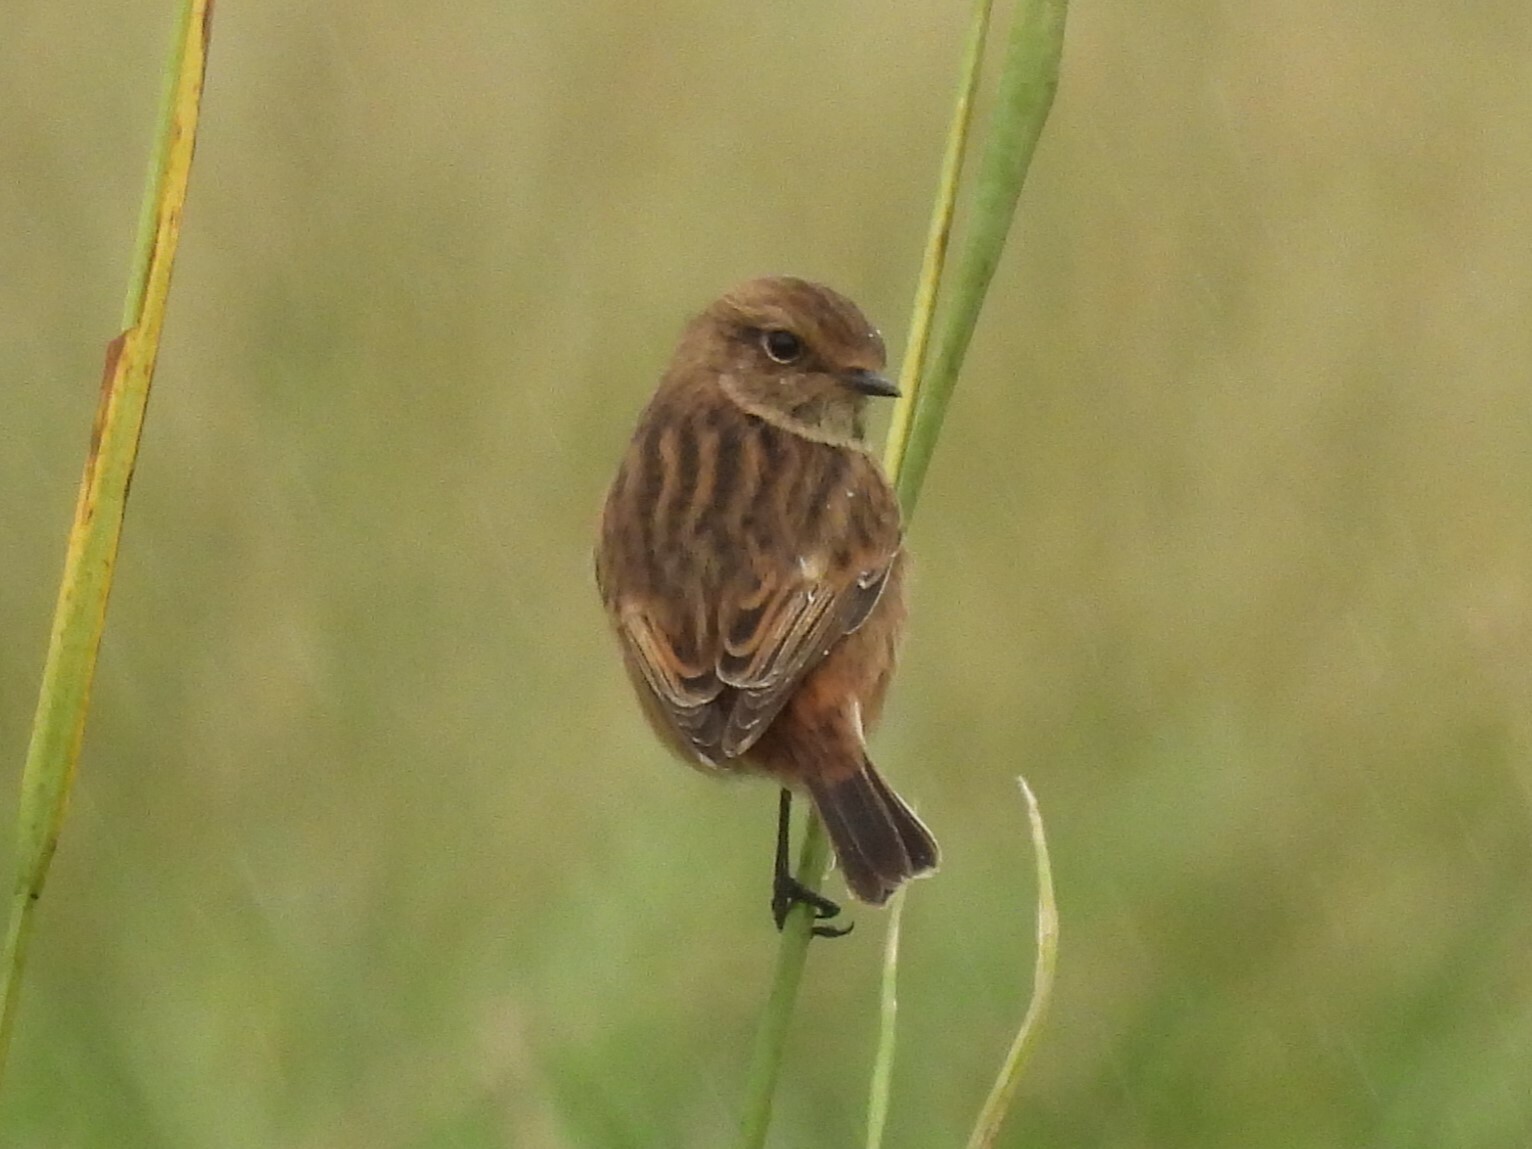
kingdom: Animalia
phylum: Chordata
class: Aves
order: Passeriformes
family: Muscicapidae
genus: Saxicola
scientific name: Saxicola rubicola
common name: European stonechat
